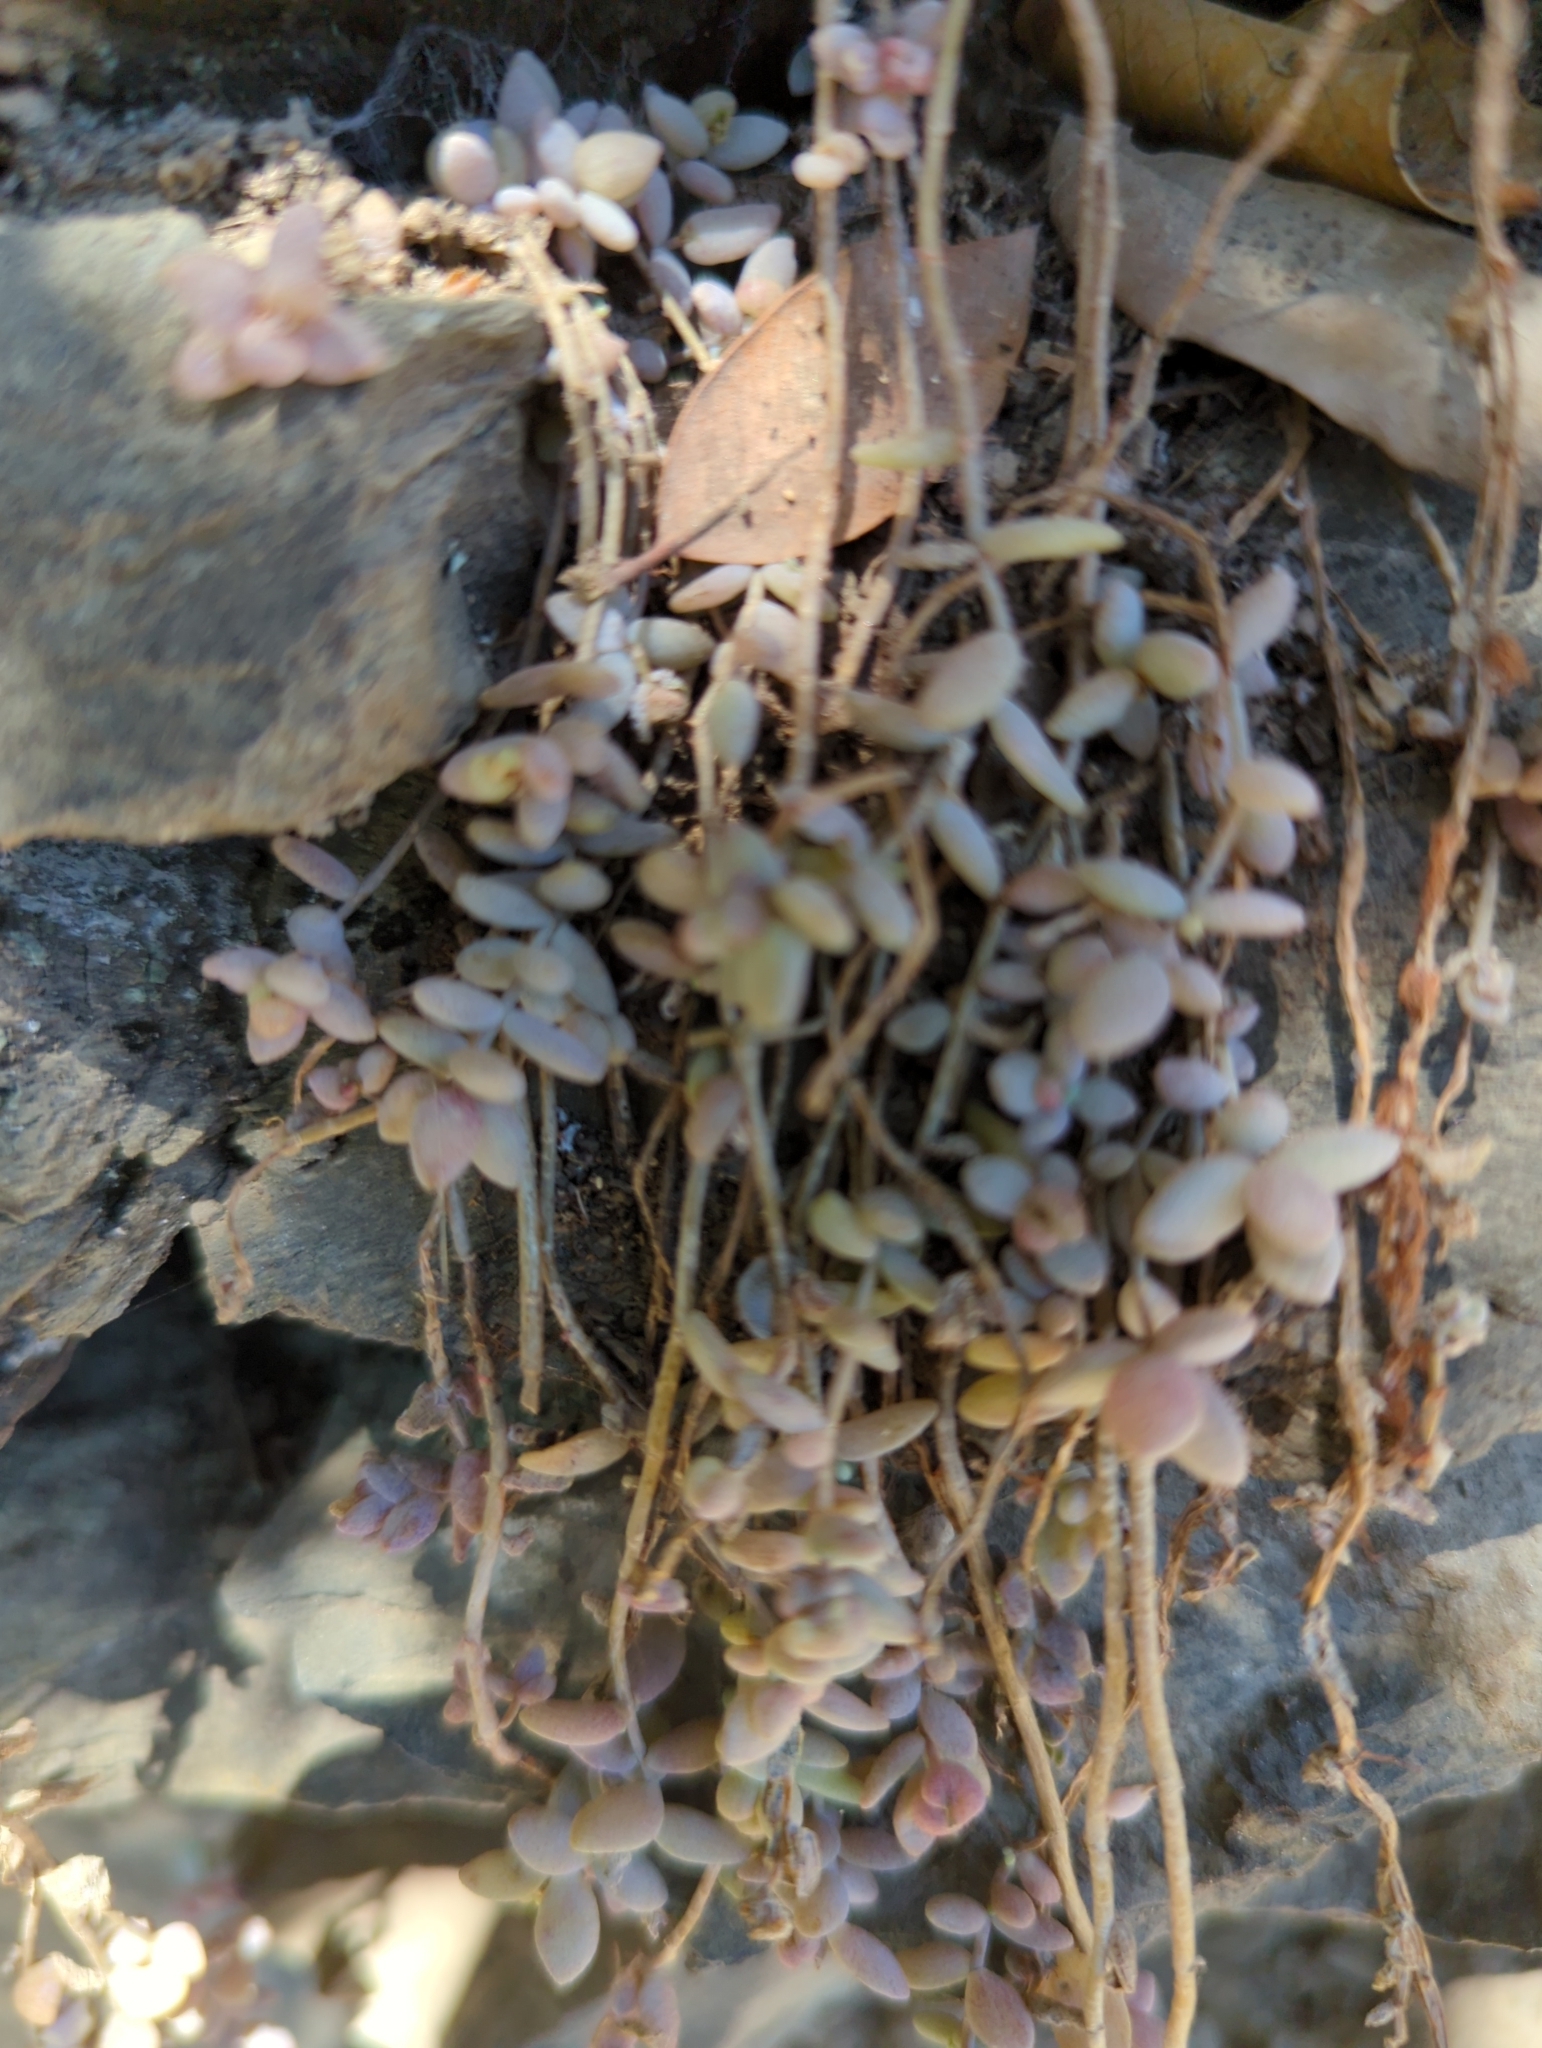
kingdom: Plantae
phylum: Tracheophyta
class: Magnoliopsida
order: Saxifragales
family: Crassulaceae
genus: Sedum
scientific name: Sedum dasyphyllum
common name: Thick-leaf stonecrop
